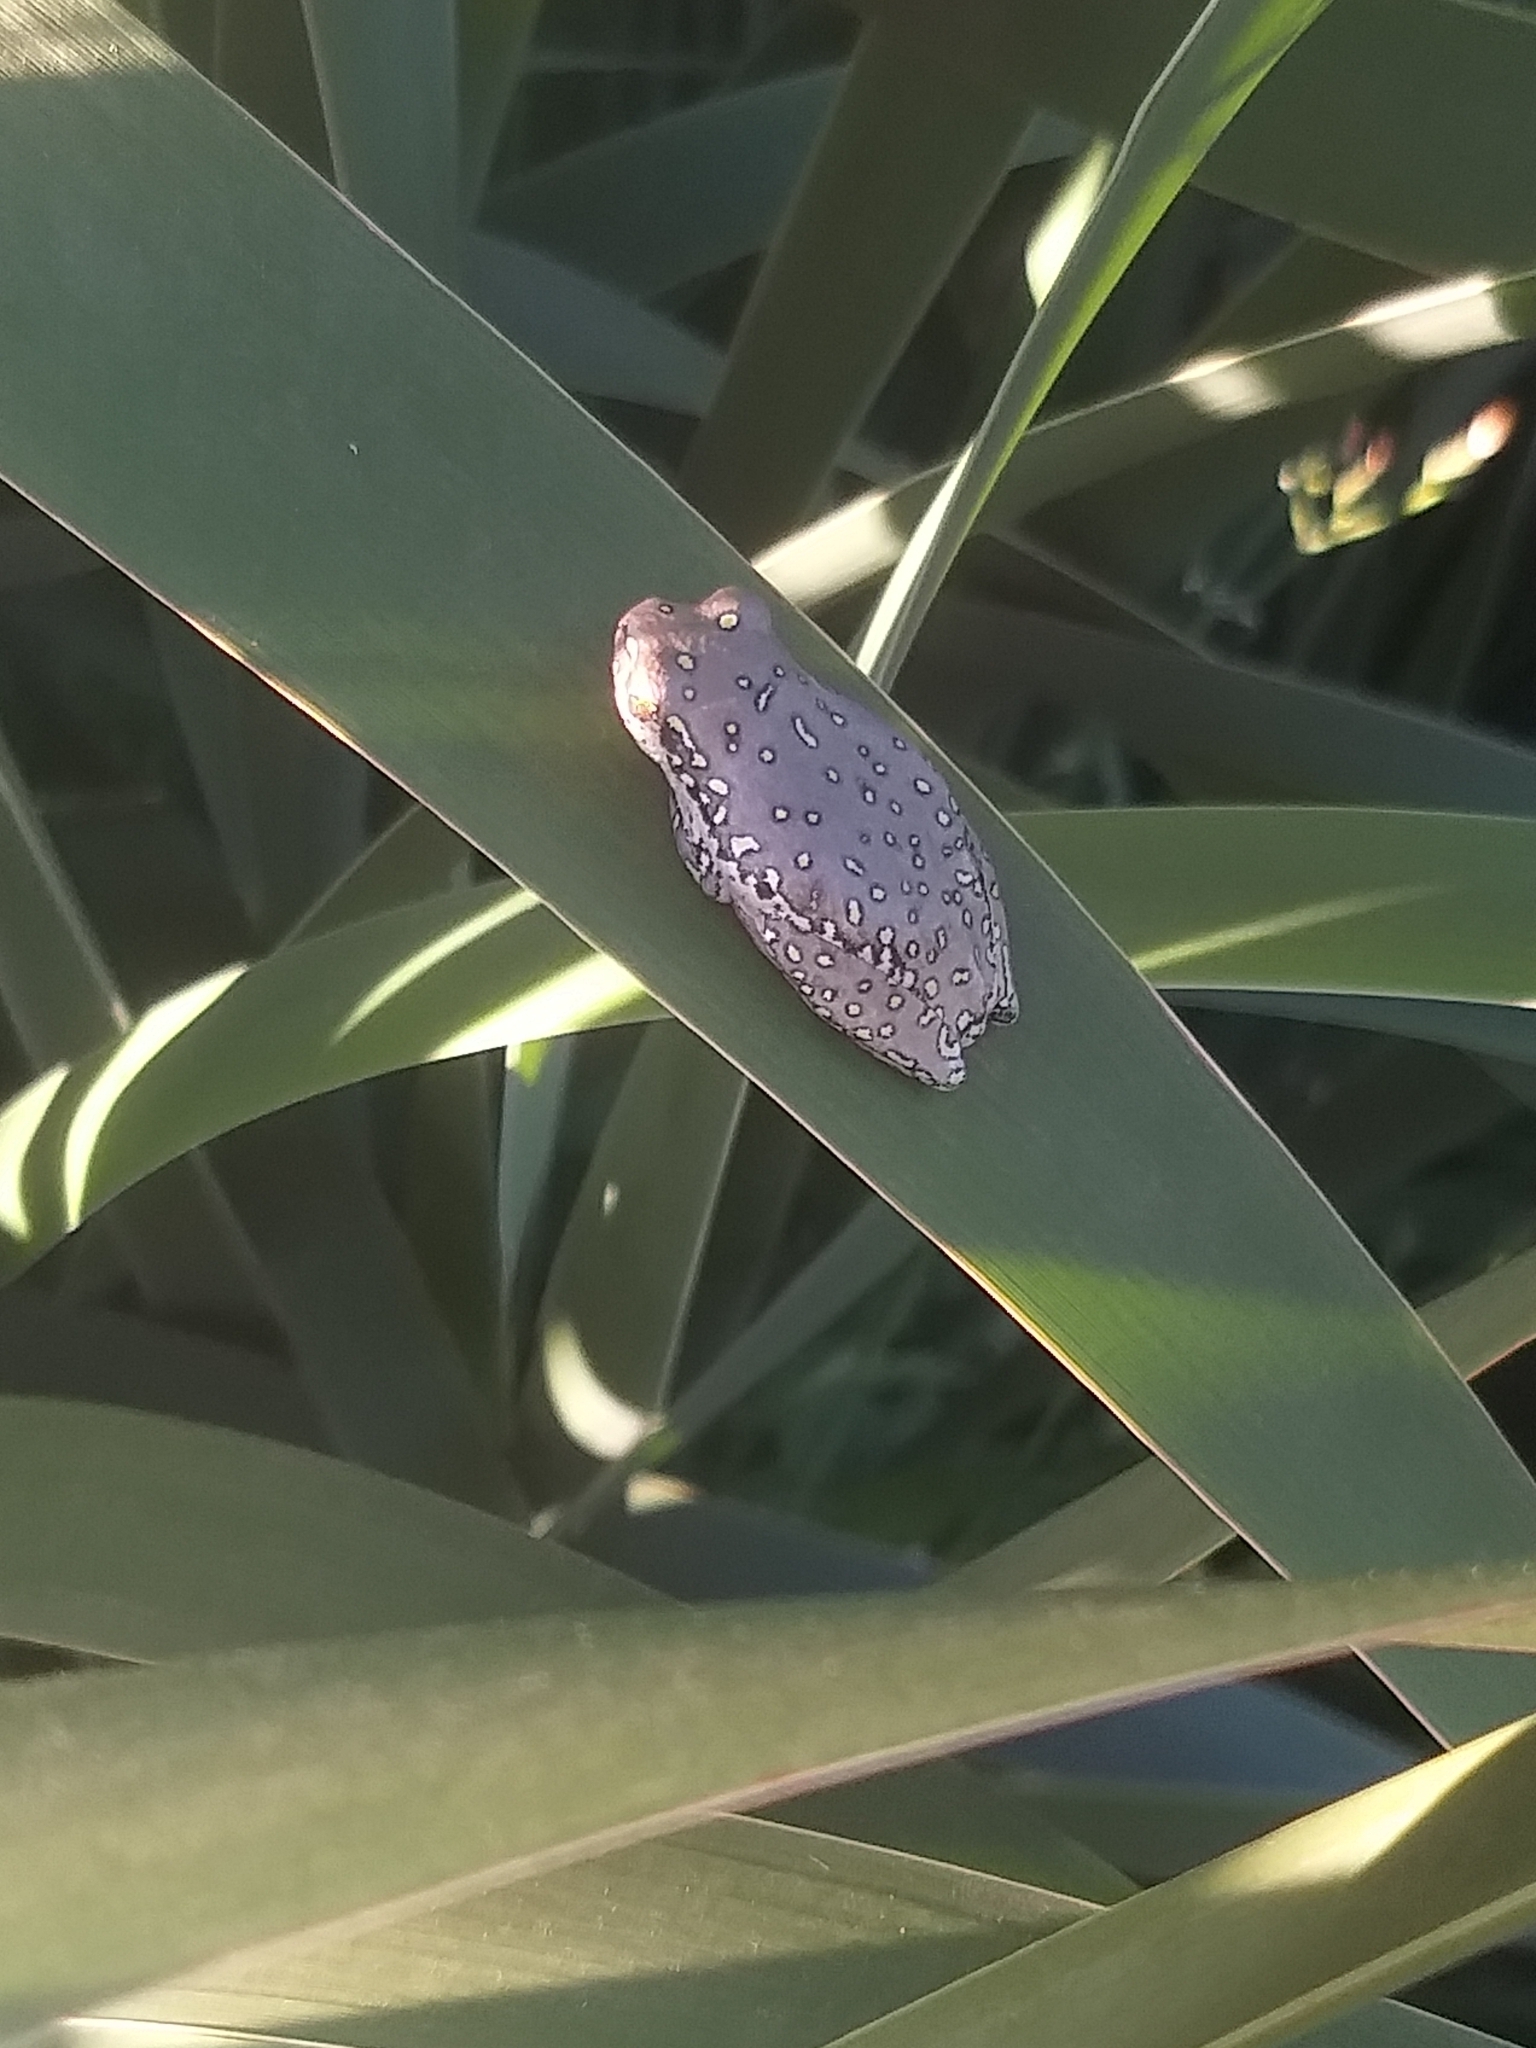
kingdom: Animalia
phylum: Chordata
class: Amphibia
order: Anura
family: Hyperoliidae
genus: Hyperolius
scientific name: Hyperolius marmoratus
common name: Painted reed frog
